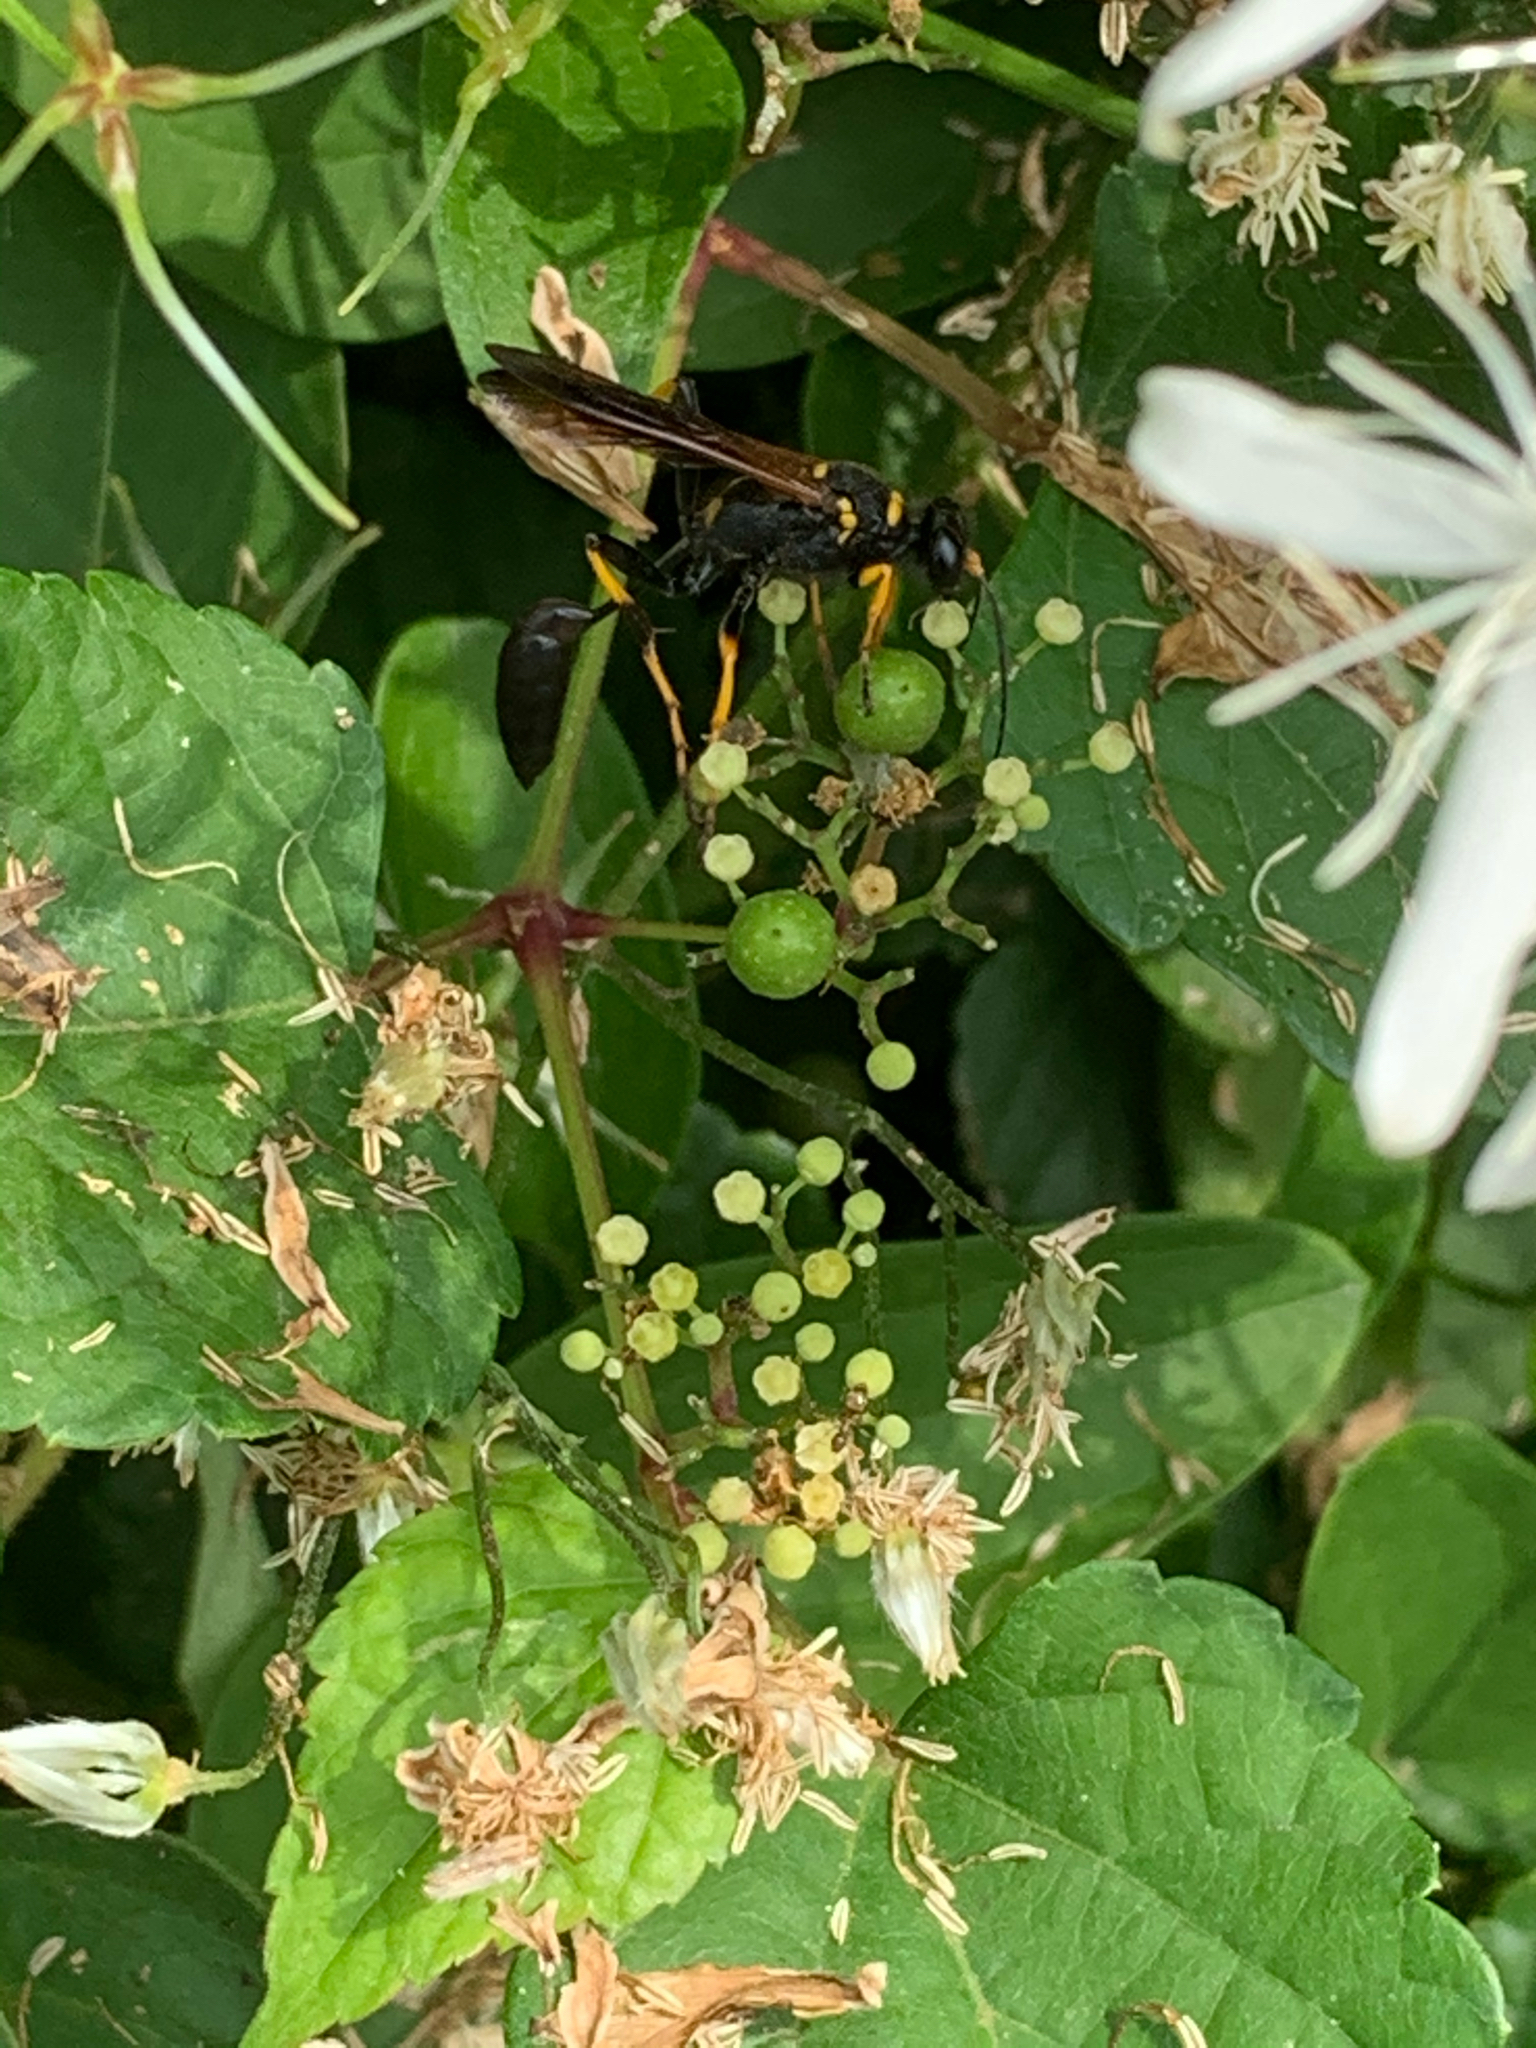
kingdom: Animalia
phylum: Arthropoda
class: Insecta
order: Hymenoptera
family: Sphecidae
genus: Sceliphron
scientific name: Sceliphron caementarium
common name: Mud dauber
